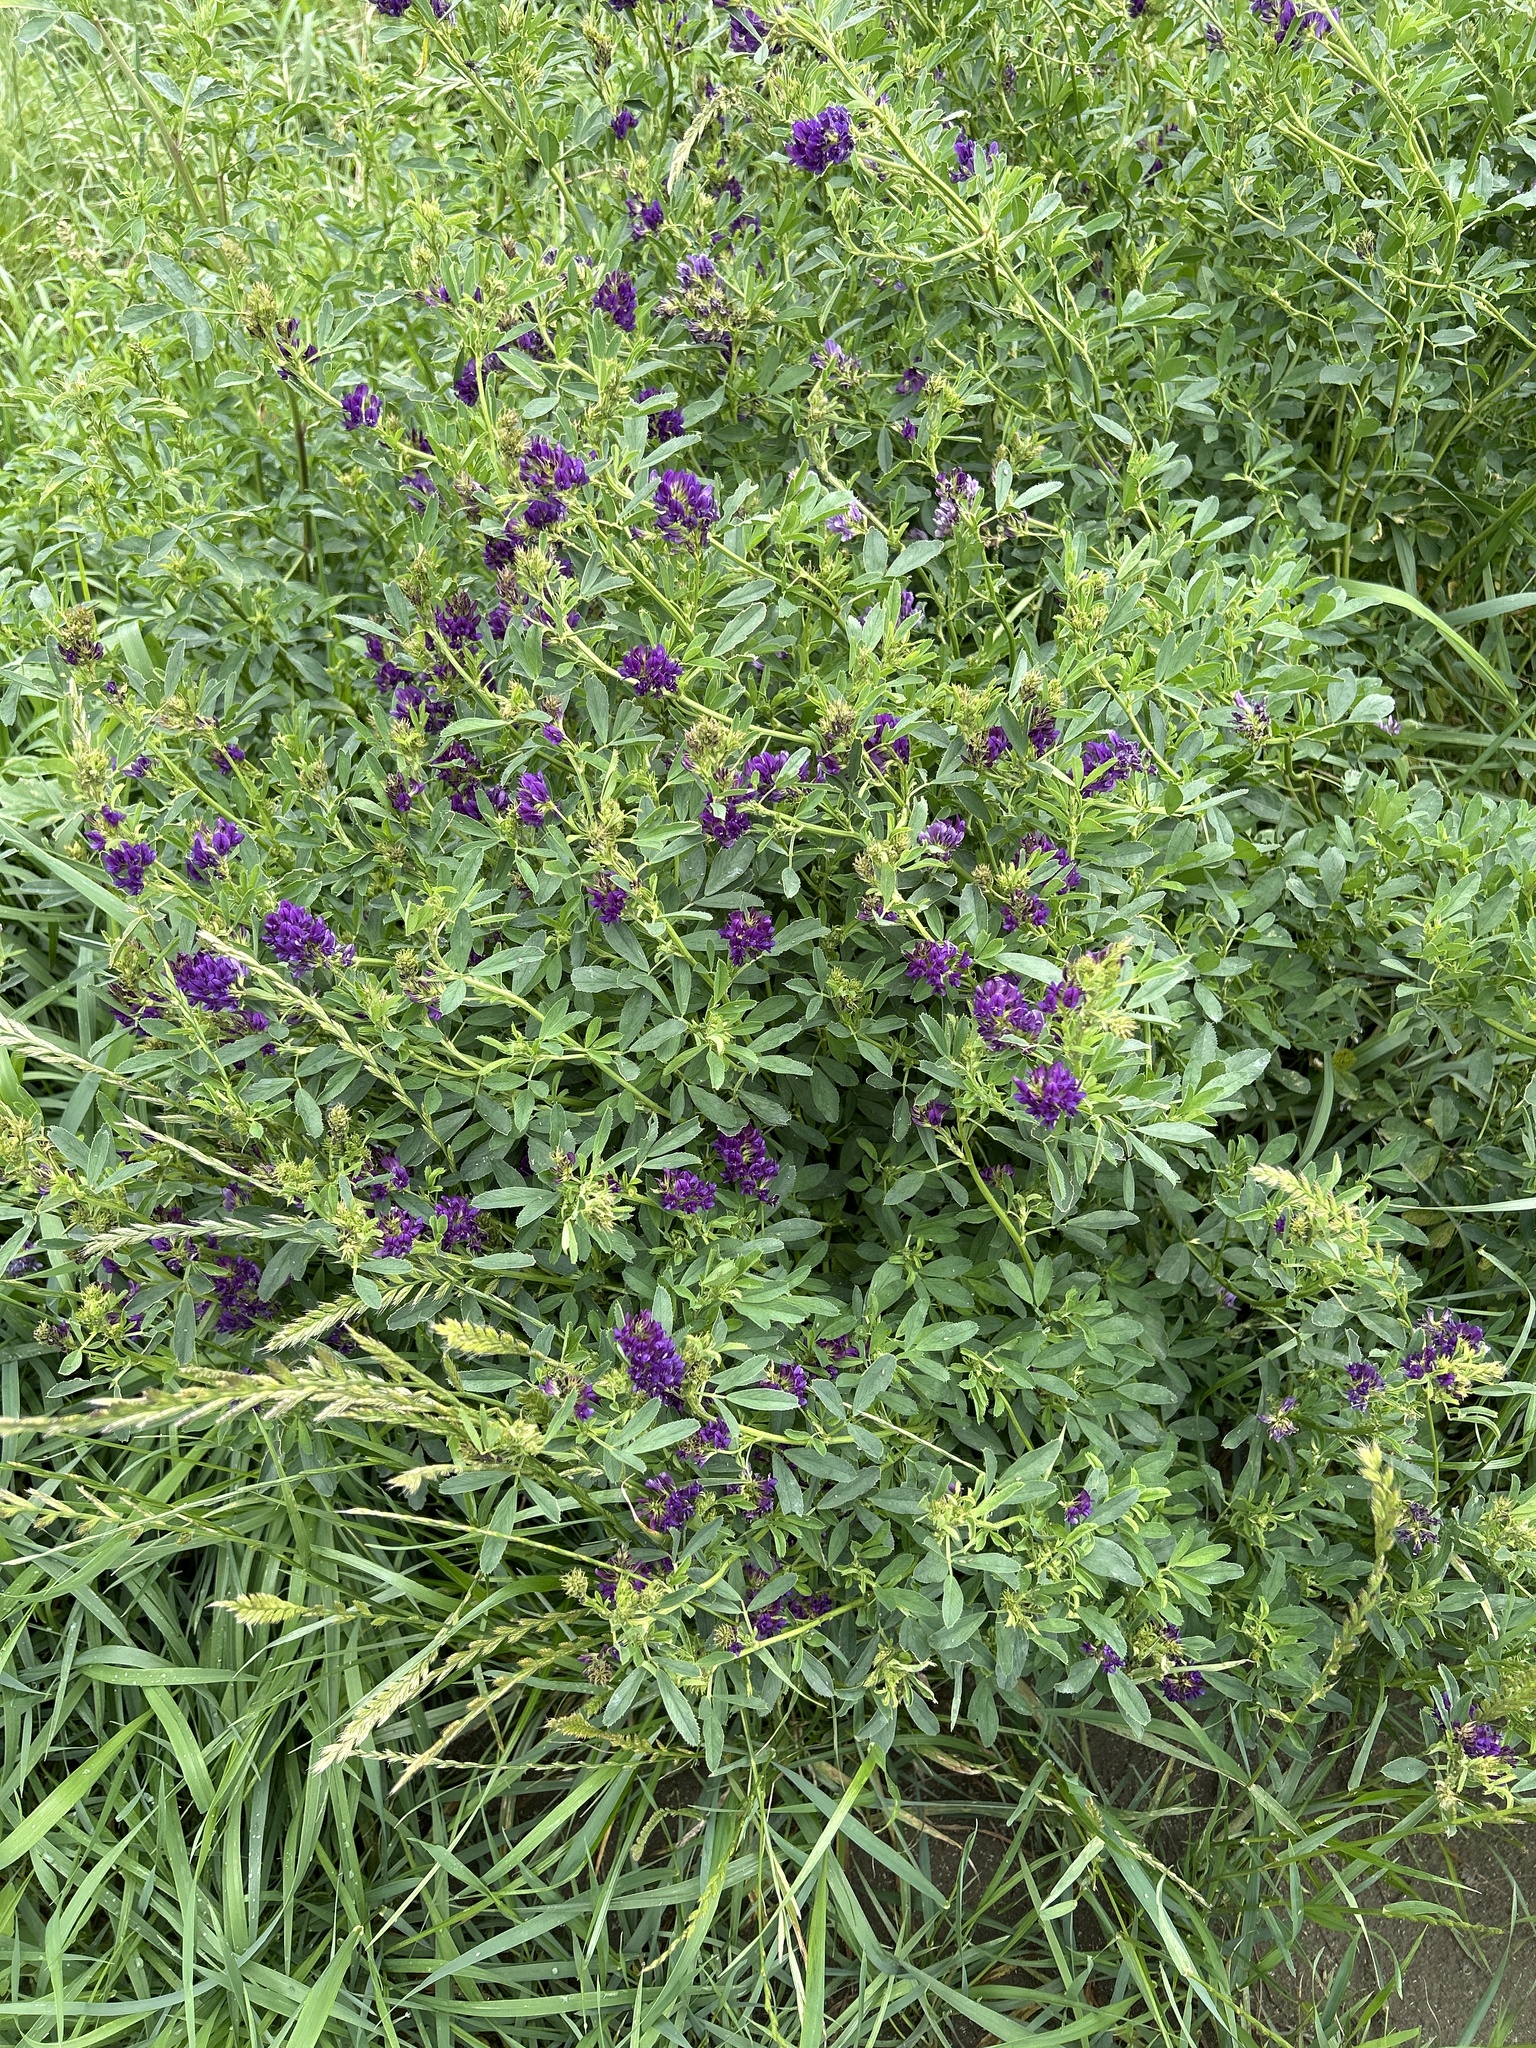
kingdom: Plantae
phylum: Tracheophyta
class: Magnoliopsida
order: Fabales
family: Fabaceae
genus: Medicago
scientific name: Medicago sativa
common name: Alfalfa
